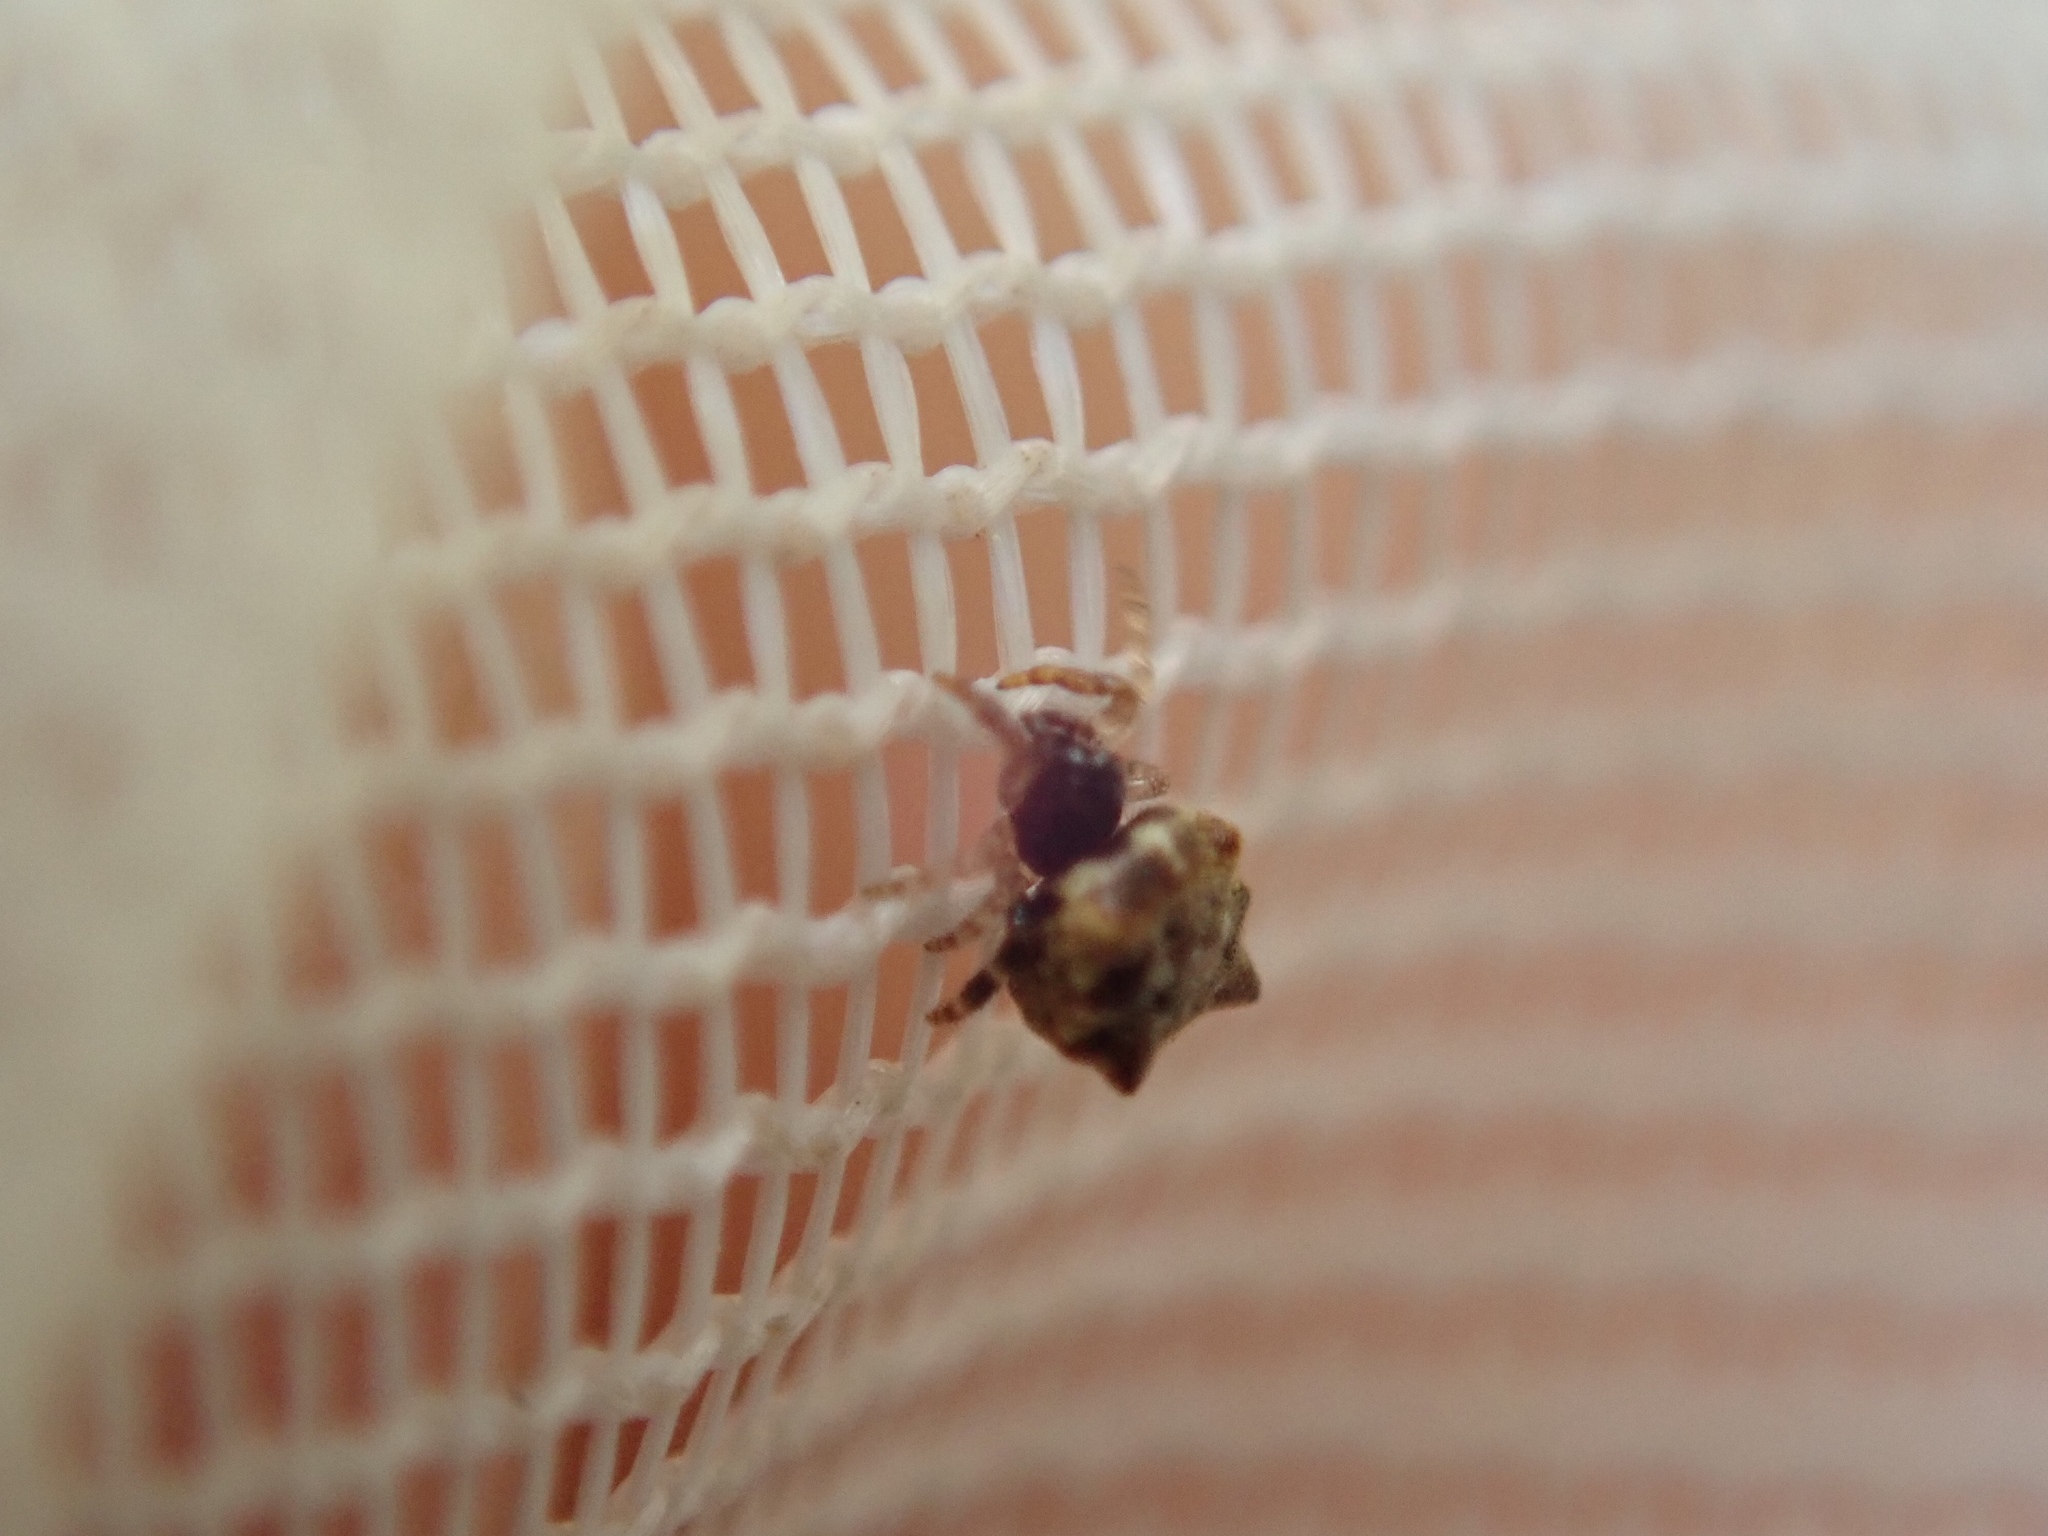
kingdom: Animalia
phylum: Arthropoda
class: Arachnida
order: Araneae
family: Theridiidae
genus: Phoroncidia
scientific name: Phoroncidia quadrata
